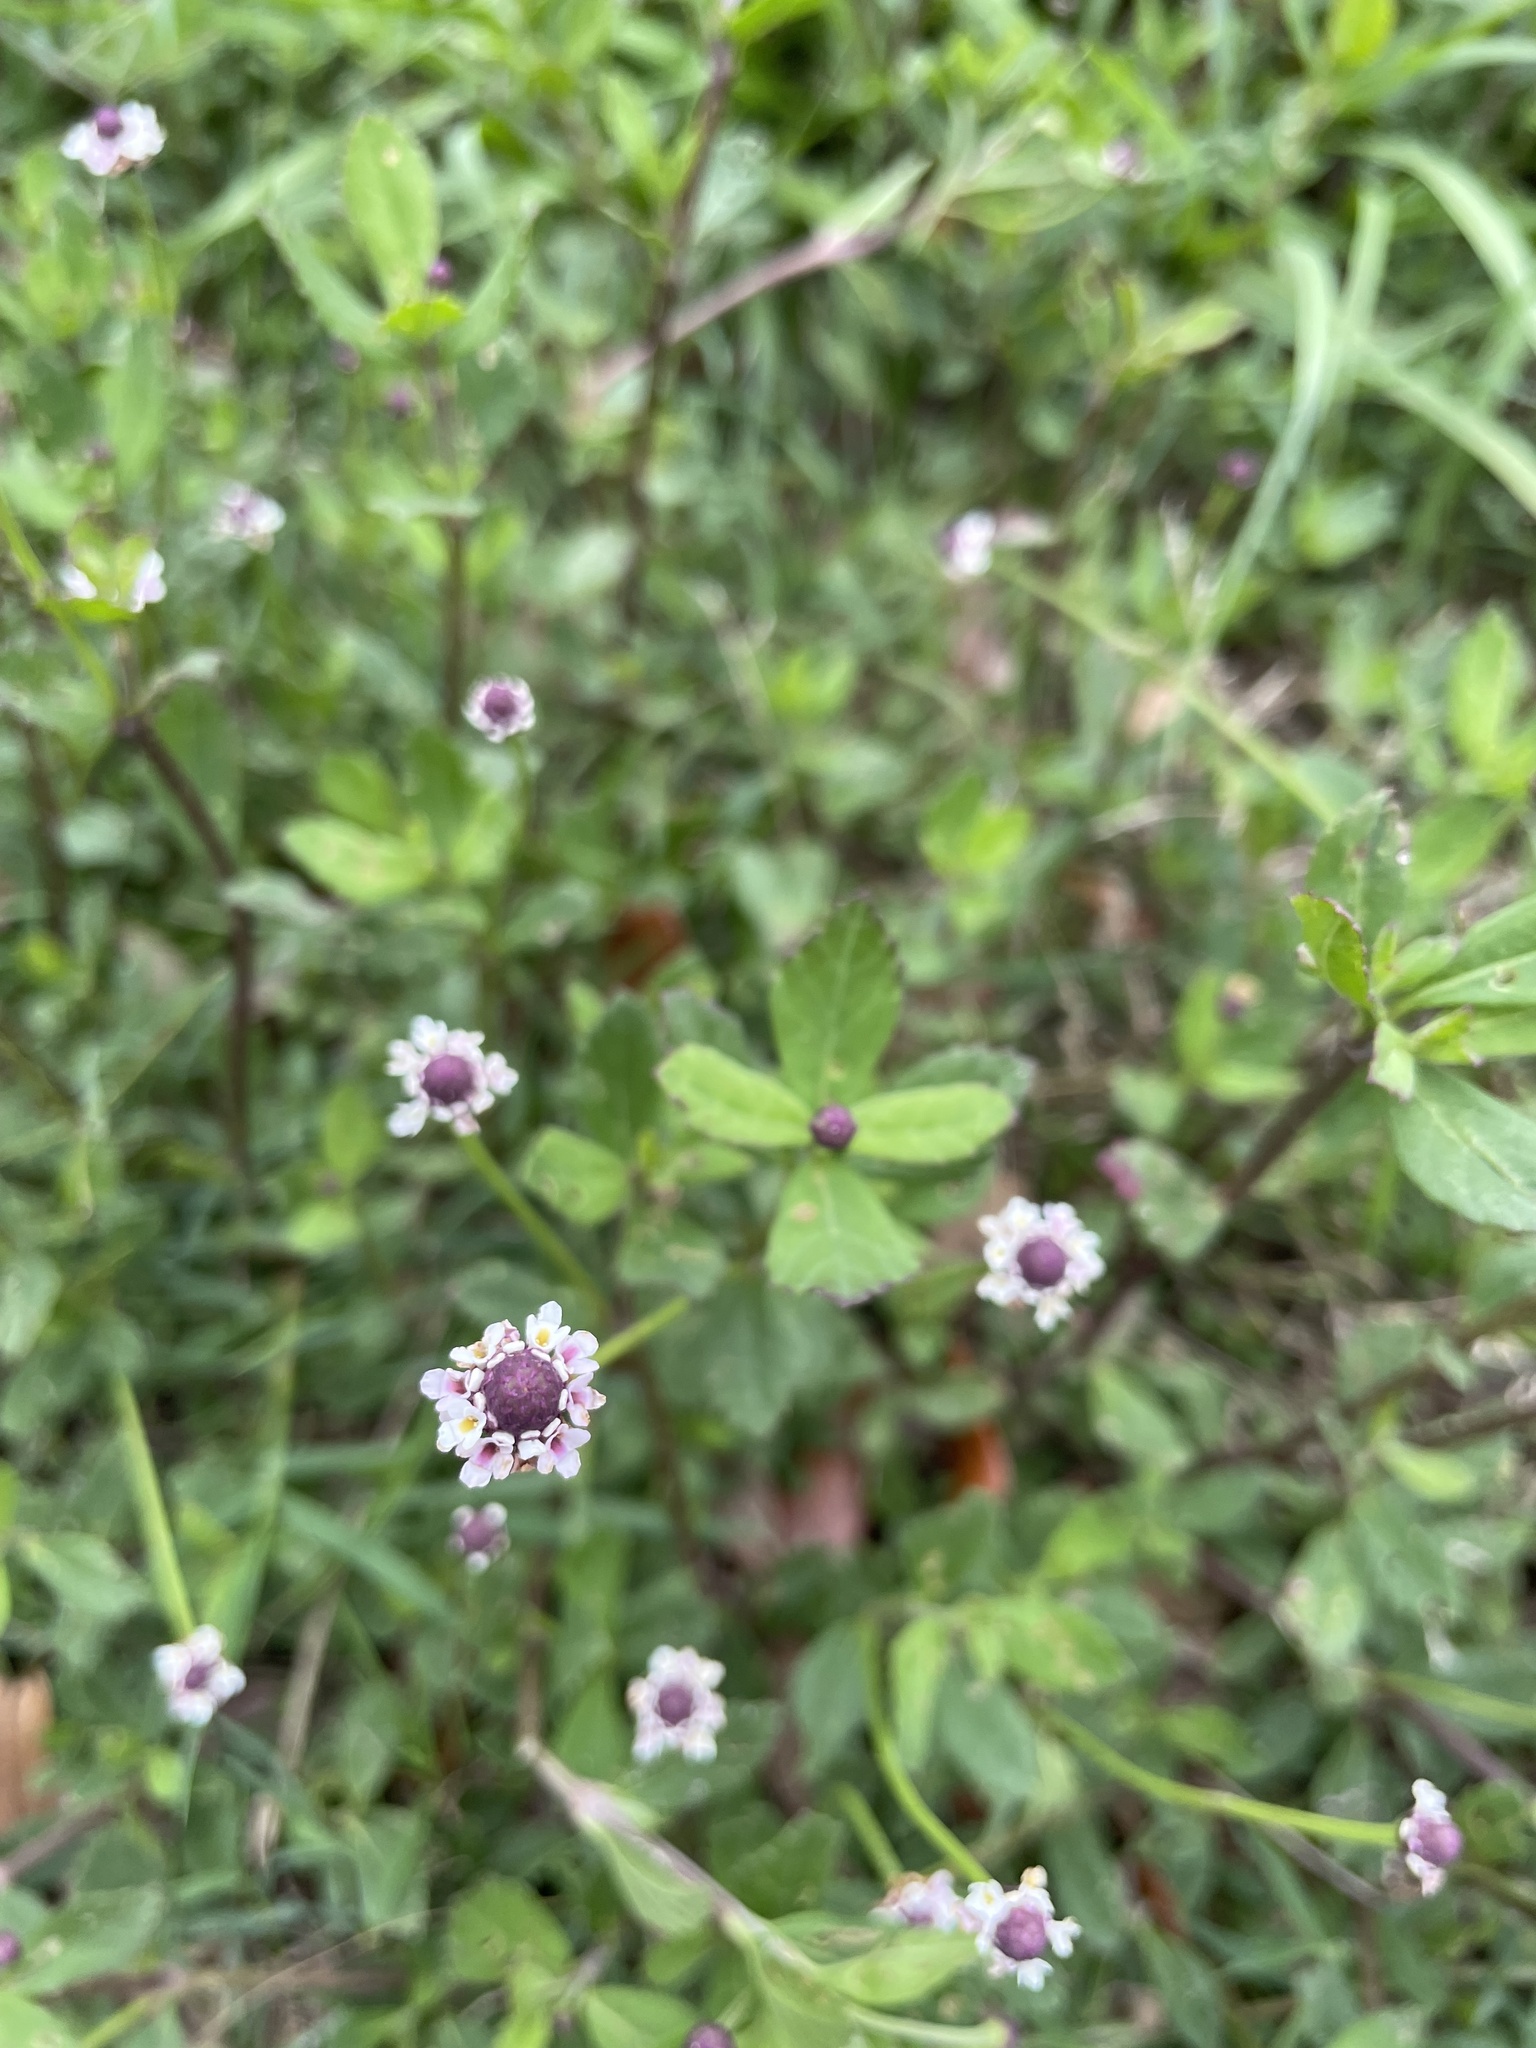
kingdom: Plantae
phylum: Tracheophyta
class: Magnoliopsida
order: Lamiales
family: Verbenaceae
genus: Phyla
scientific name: Phyla nodiflora
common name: Frogfruit
